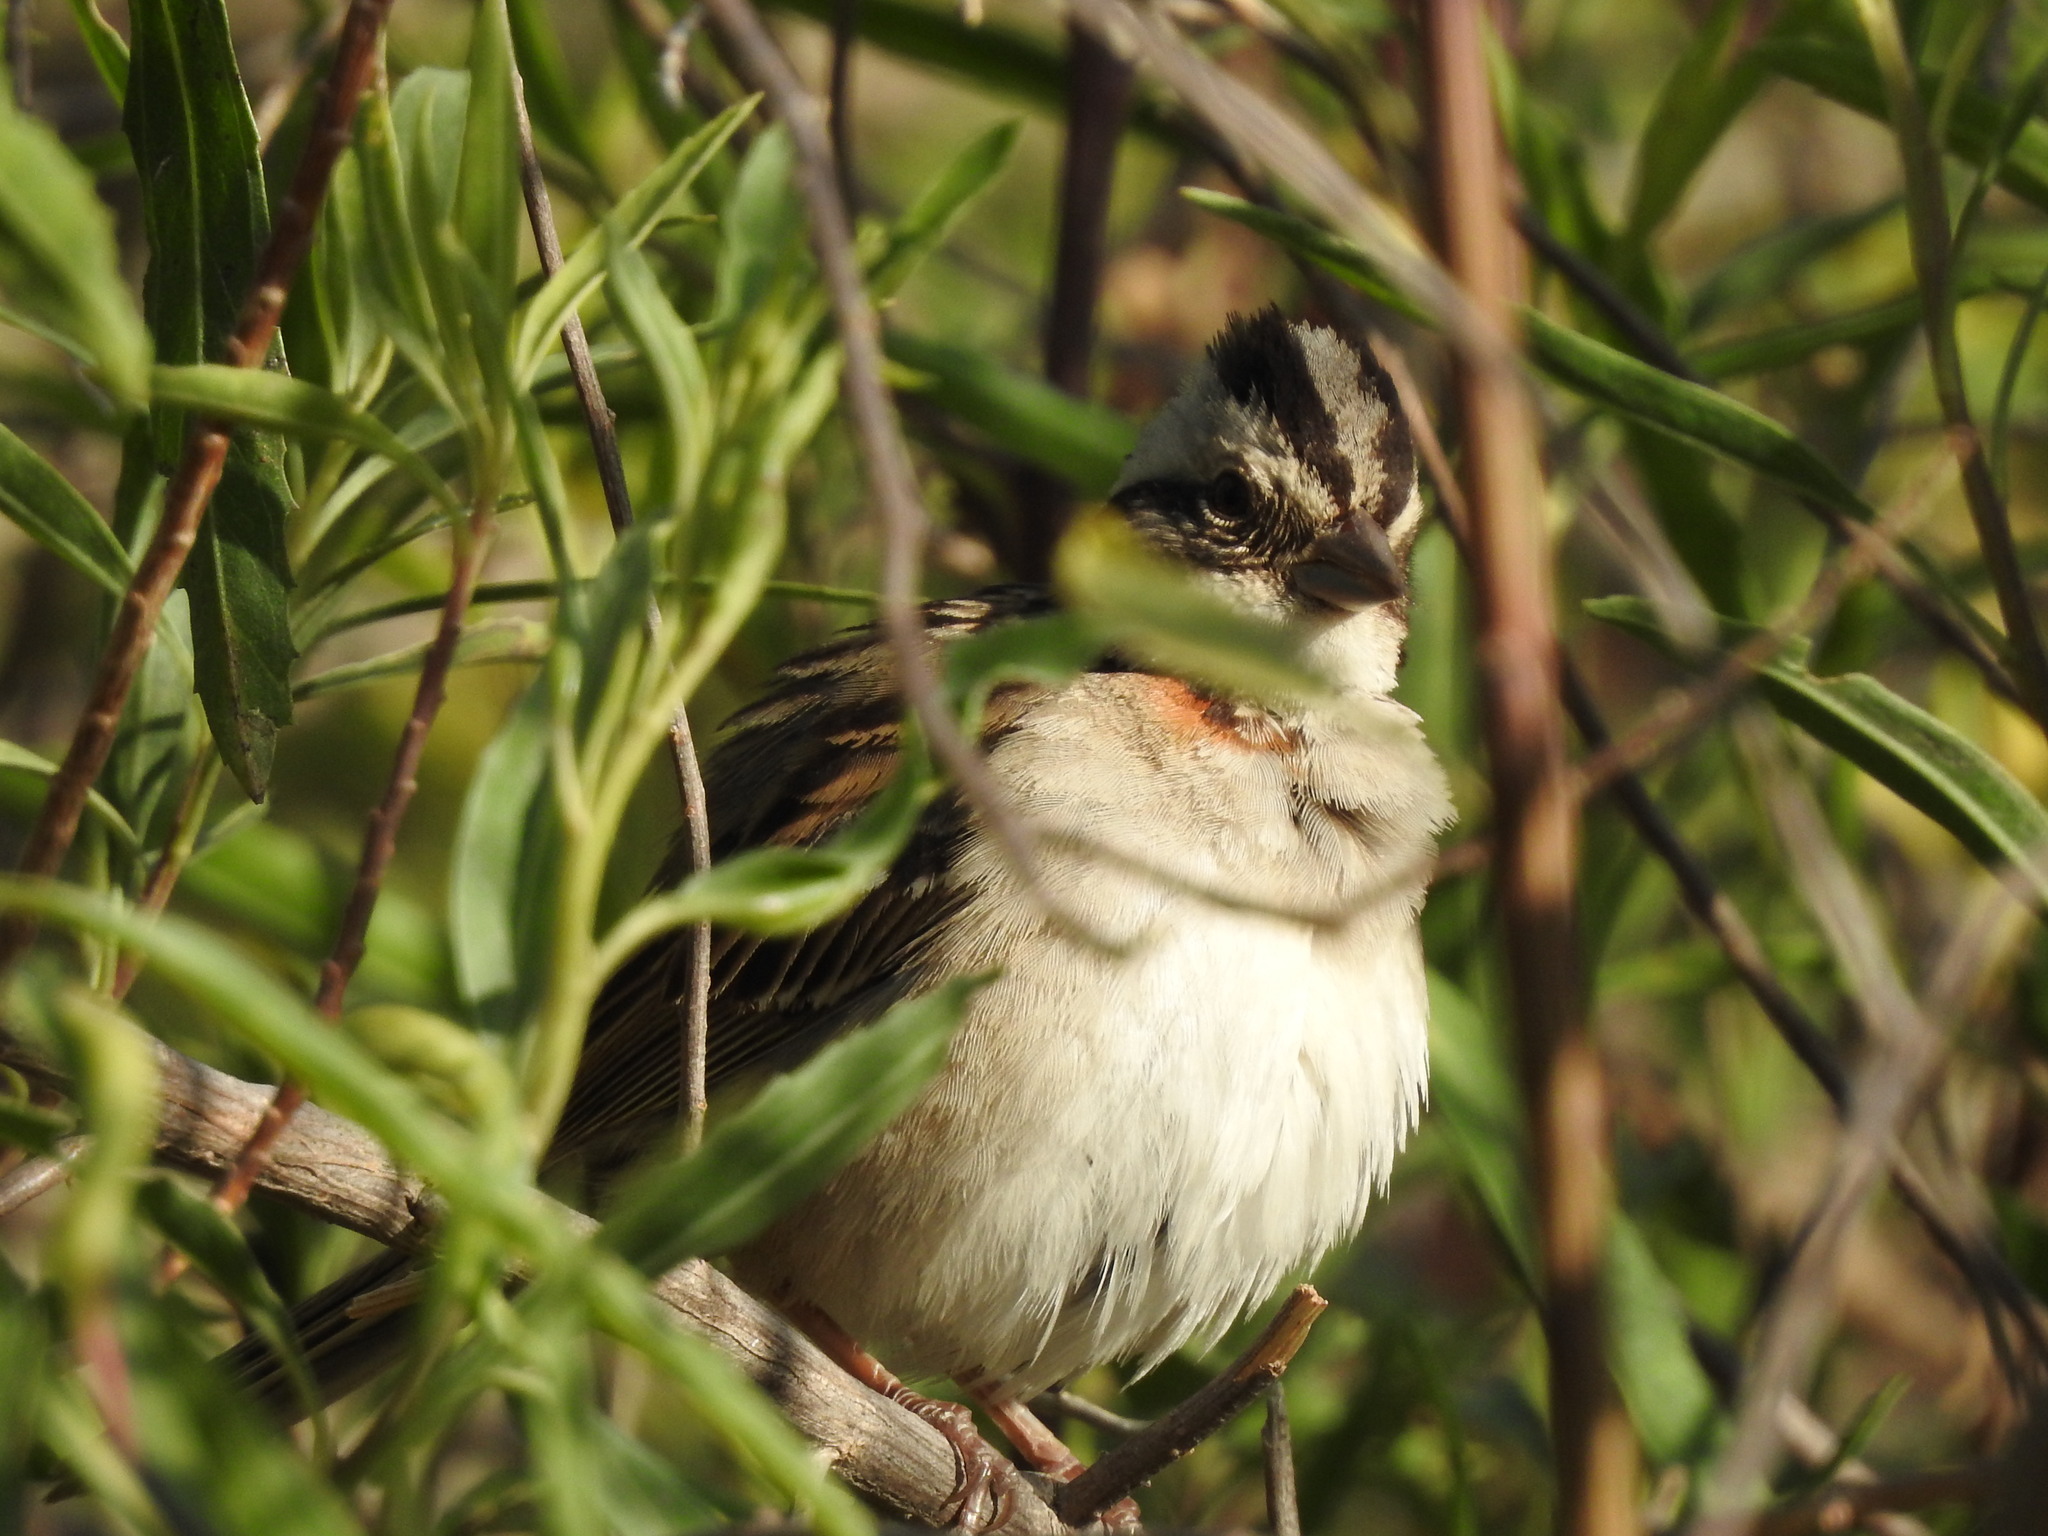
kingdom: Animalia
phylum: Chordata
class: Aves
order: Passeriformes
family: Passerellidae
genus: Zonotrichia
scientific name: Zonotrichia capensis
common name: Rufous-collared sparrow
